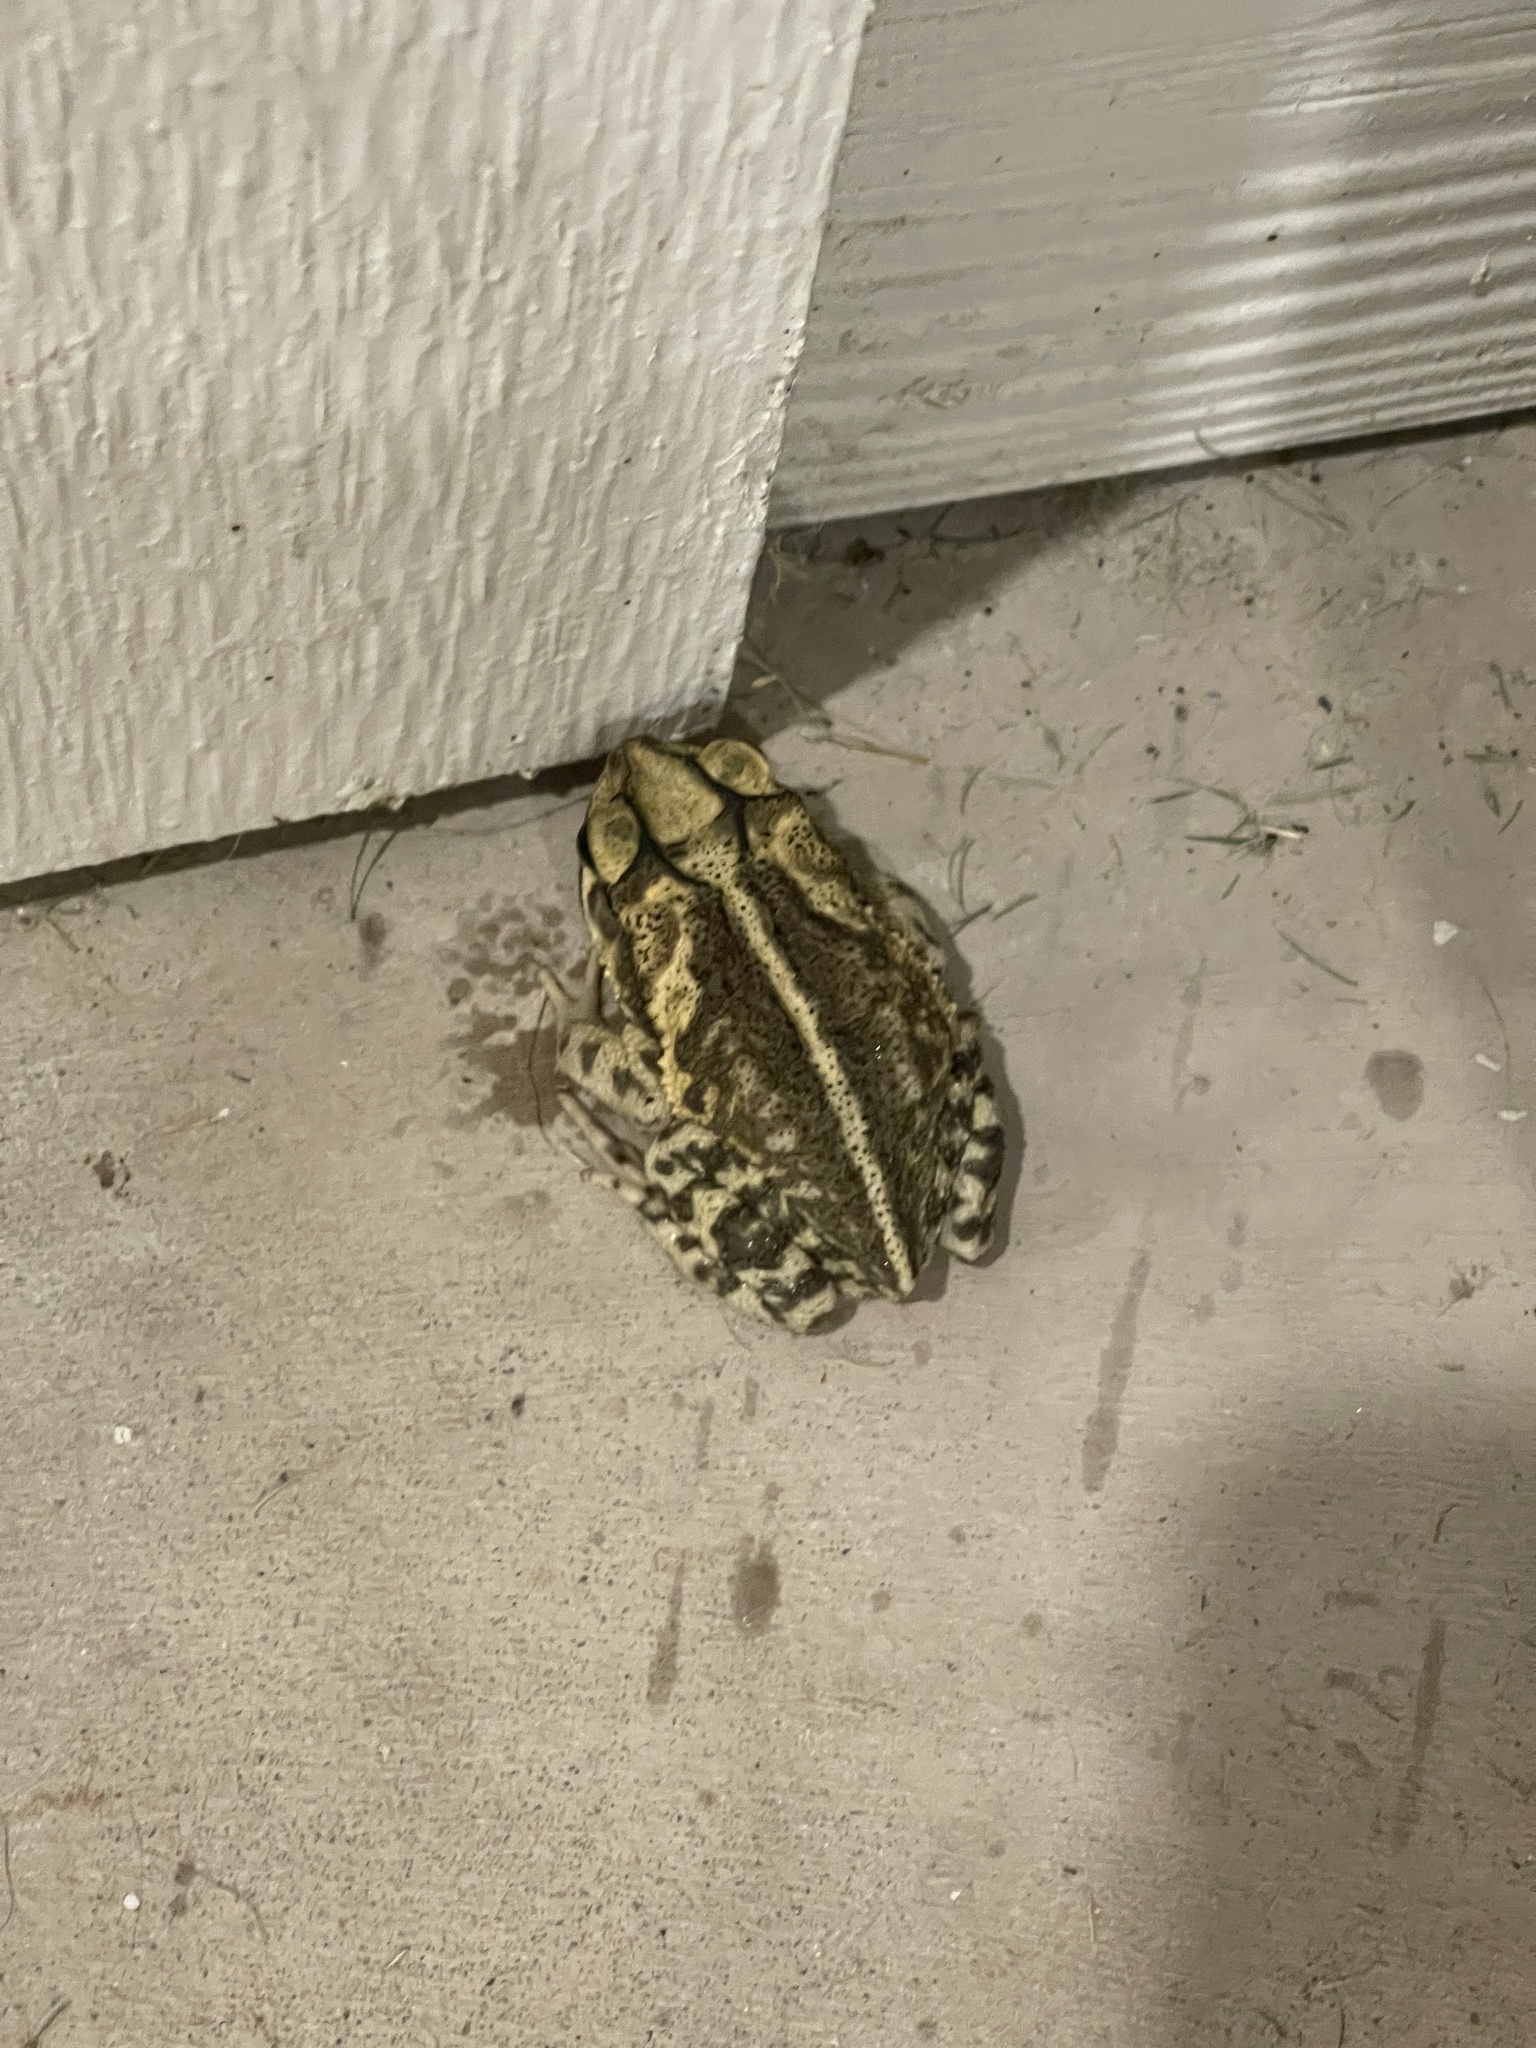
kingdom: Animalia
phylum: Chordata
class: Amphibia
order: Anura
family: Bufonidae
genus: Incilius
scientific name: Incilius nebulifer
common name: Gulf coast toad
